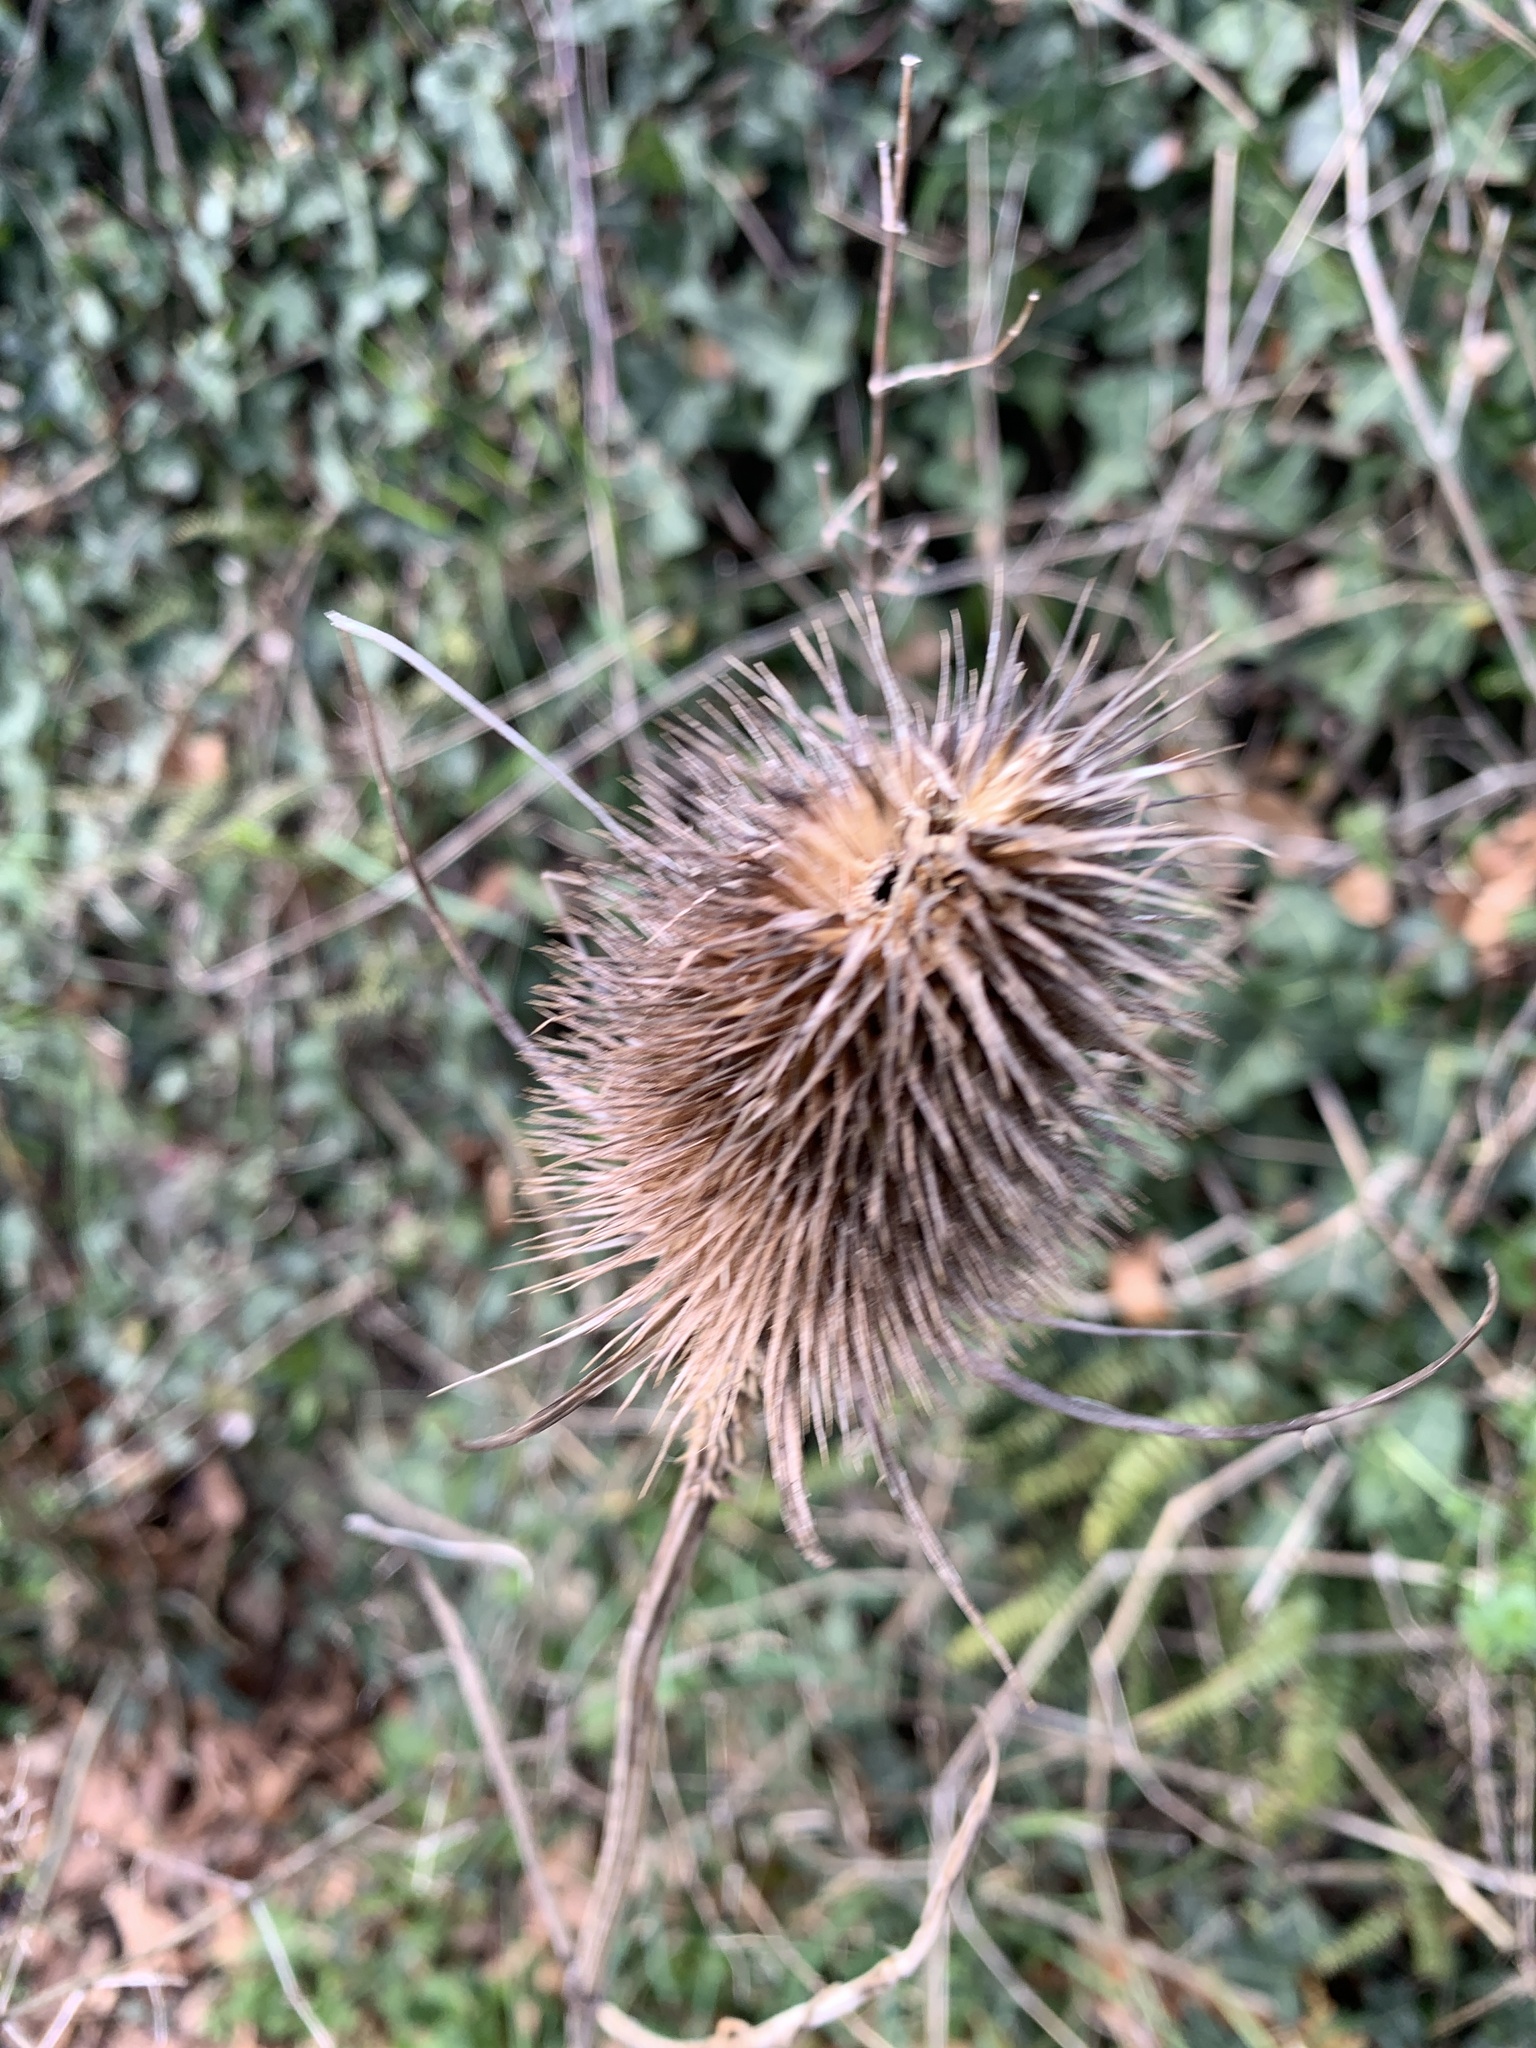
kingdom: Plantae
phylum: Tracheophyta
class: Magnoliopsida
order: Dipsacales
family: Caprifoliaceae
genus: Dipsacus
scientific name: Dipsacus fullonum
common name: Teasel
